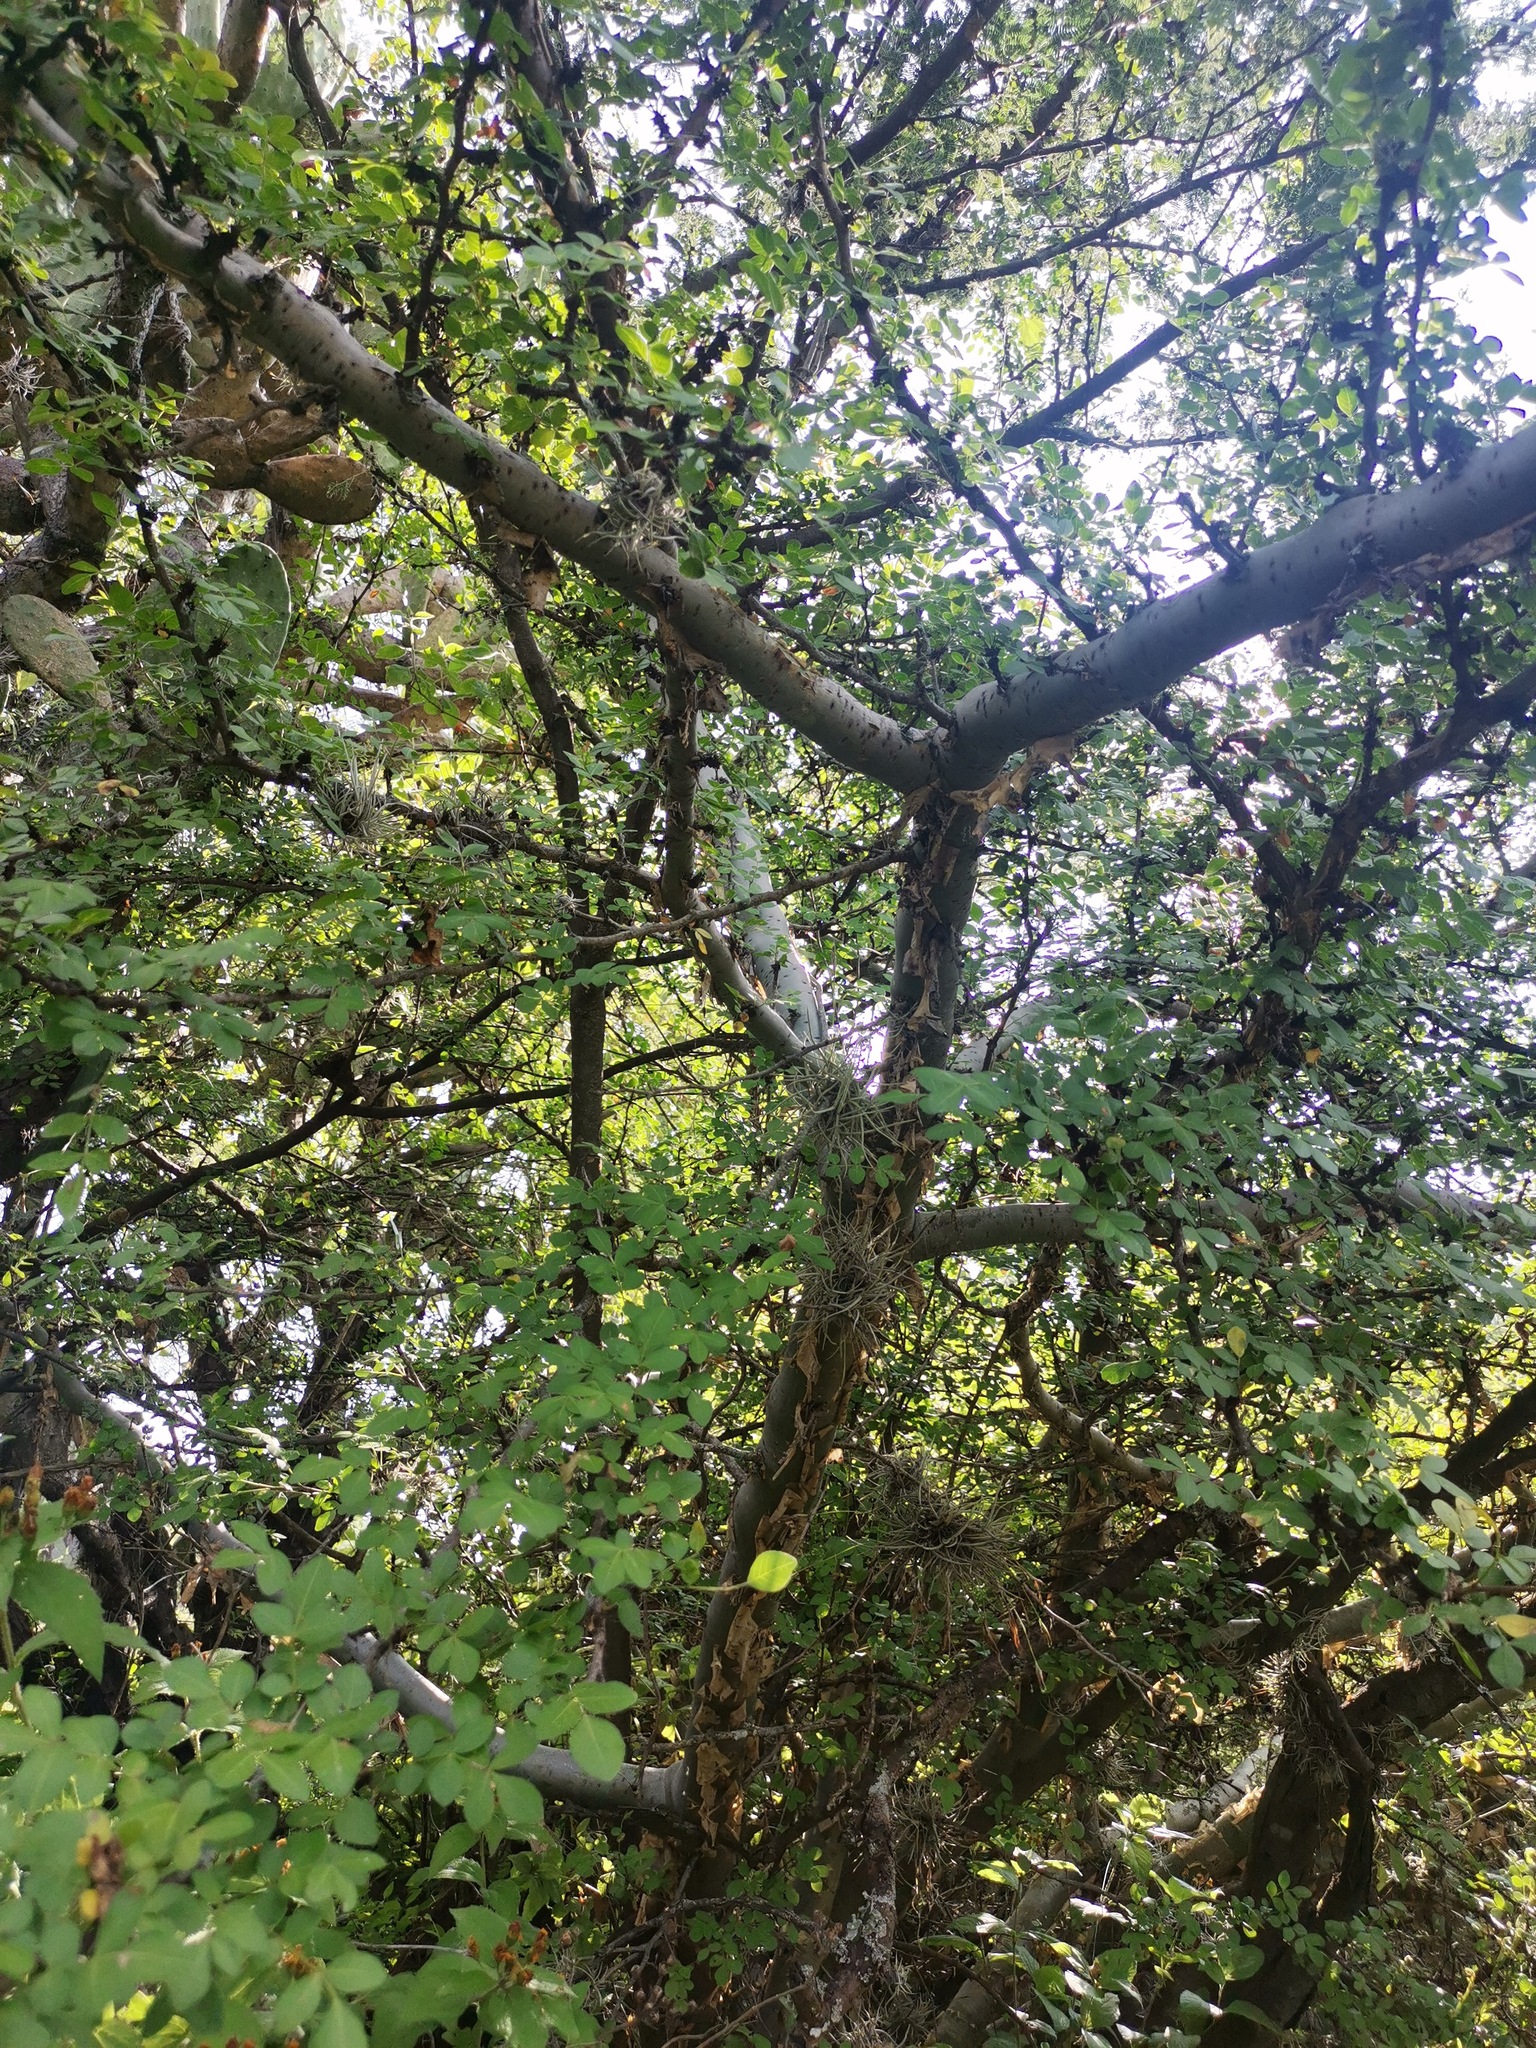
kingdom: Plantae
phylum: Tracheophyta
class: Magnoliopsida
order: Sapindales
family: Burseraceae
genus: Bursera
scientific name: Bursera fagaroides
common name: Elephant tree
